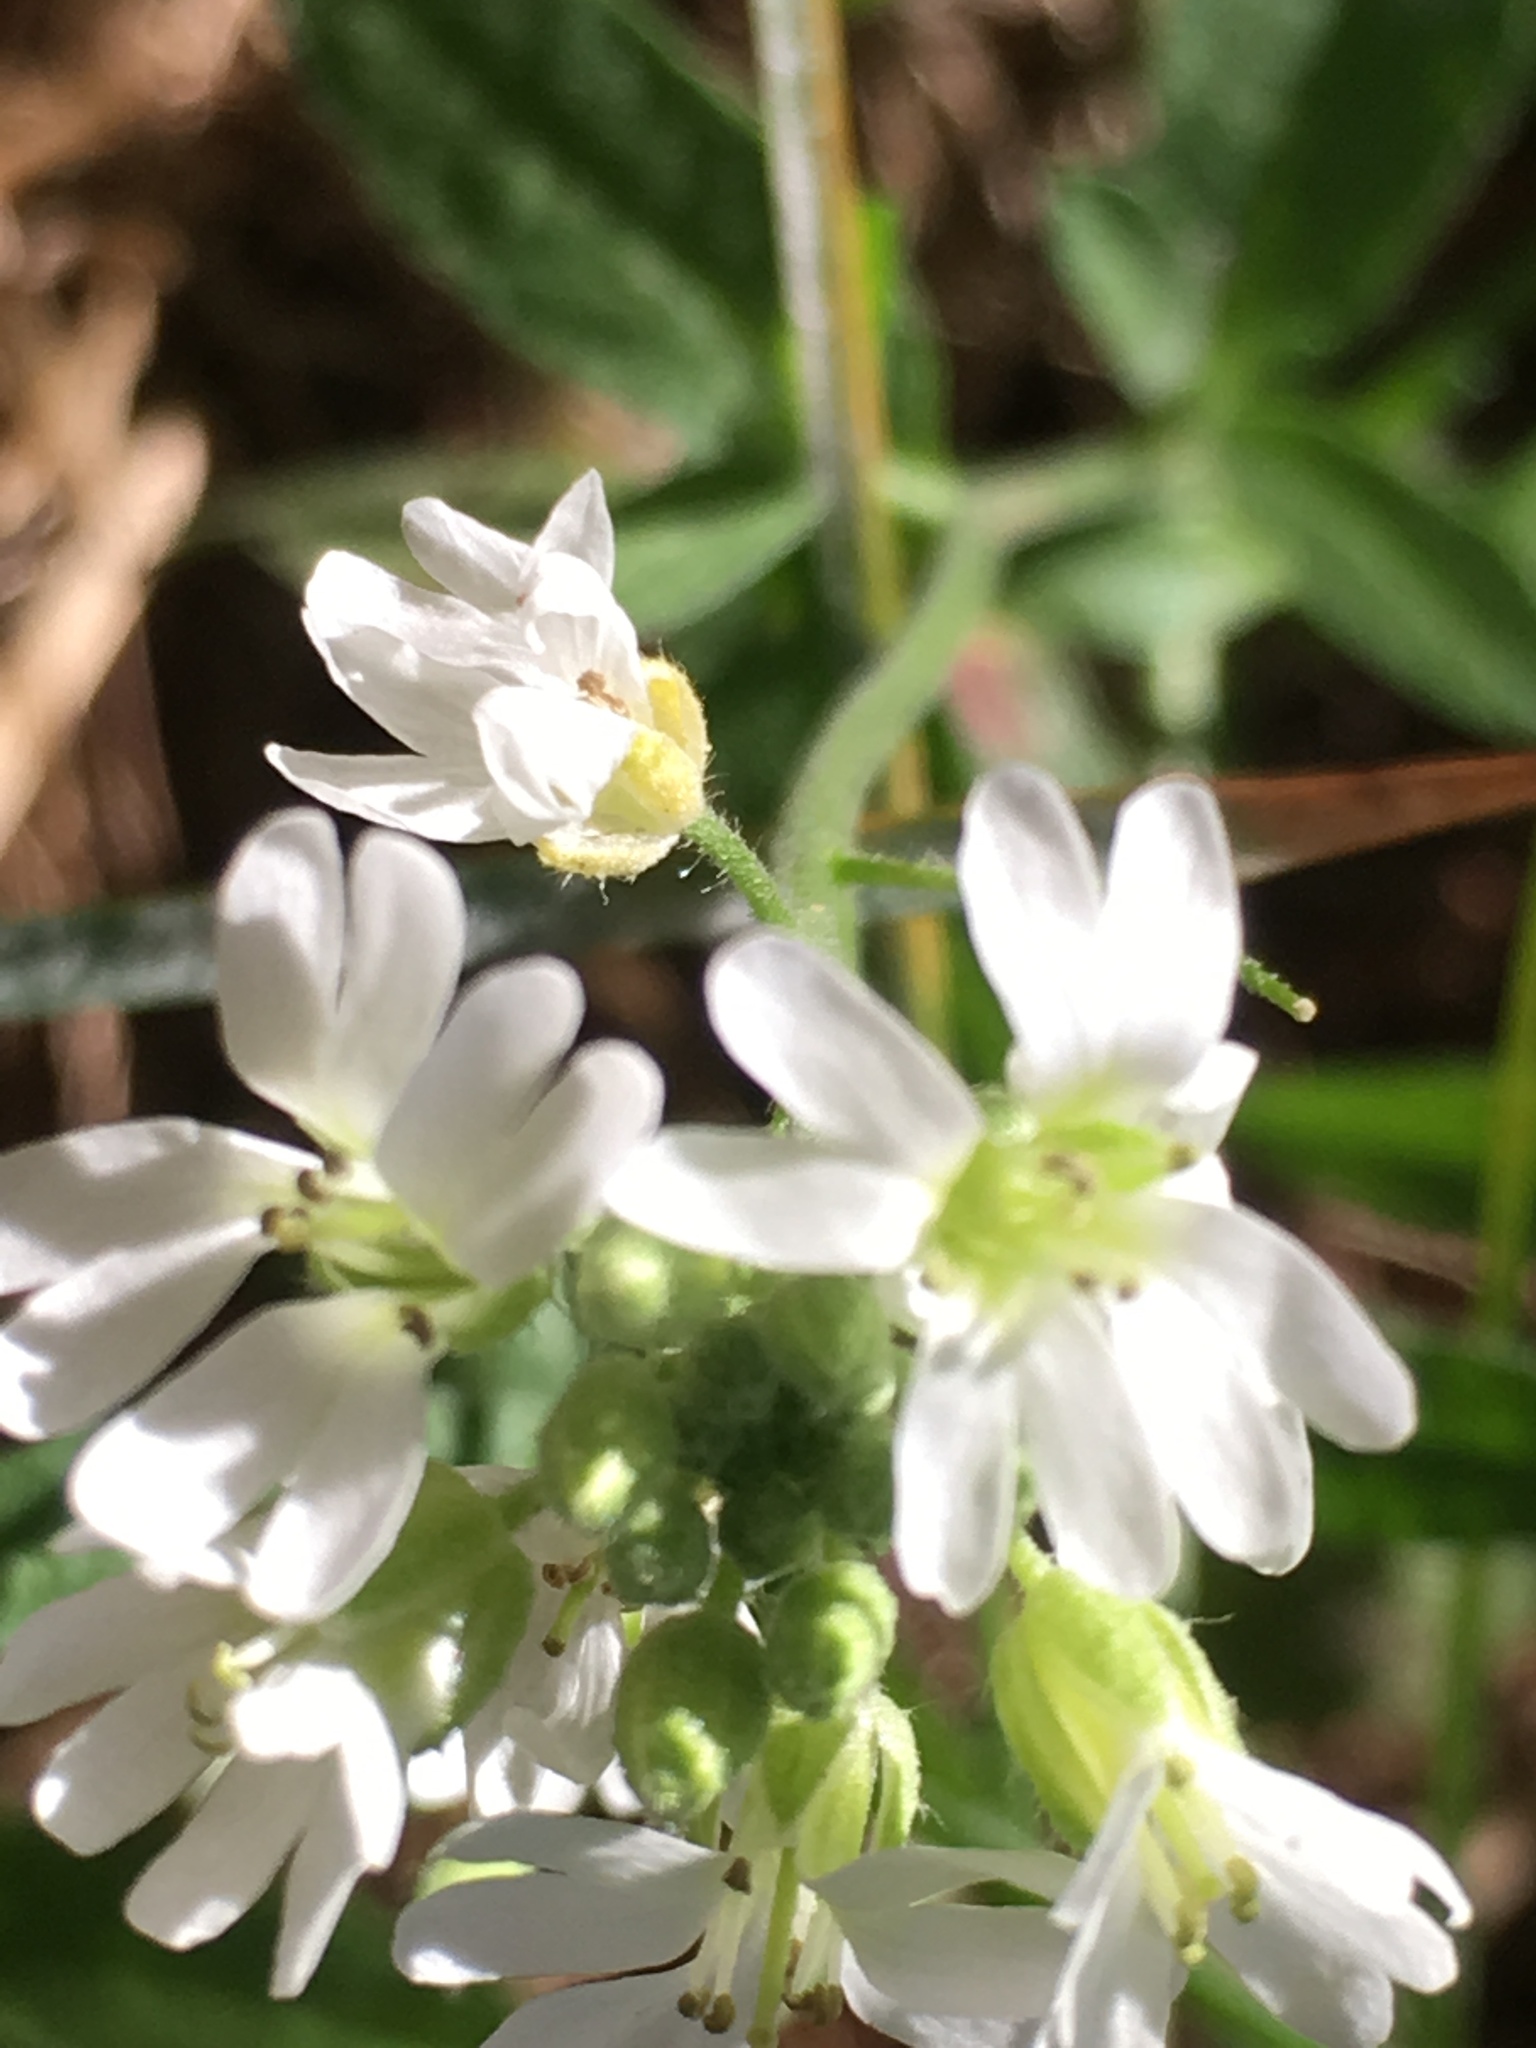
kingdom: Plantae
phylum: Tracheophyta
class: Magnoliopsida
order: Brassicales
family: Brassicaceae
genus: Berteroa
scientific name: Berteroa incana
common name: Hoary alison
